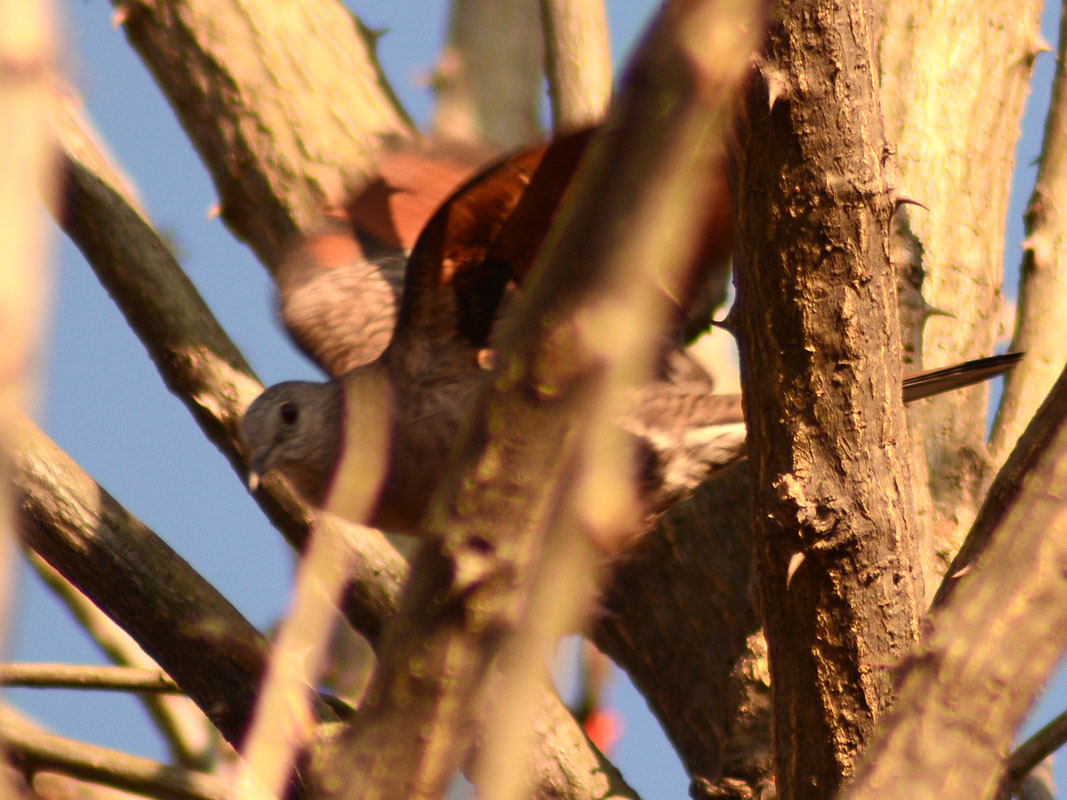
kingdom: Animalia
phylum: Chordata
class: Aves
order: Columbiformes
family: Columbidae
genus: Columbina
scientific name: Columbina inca
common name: Inca dove
